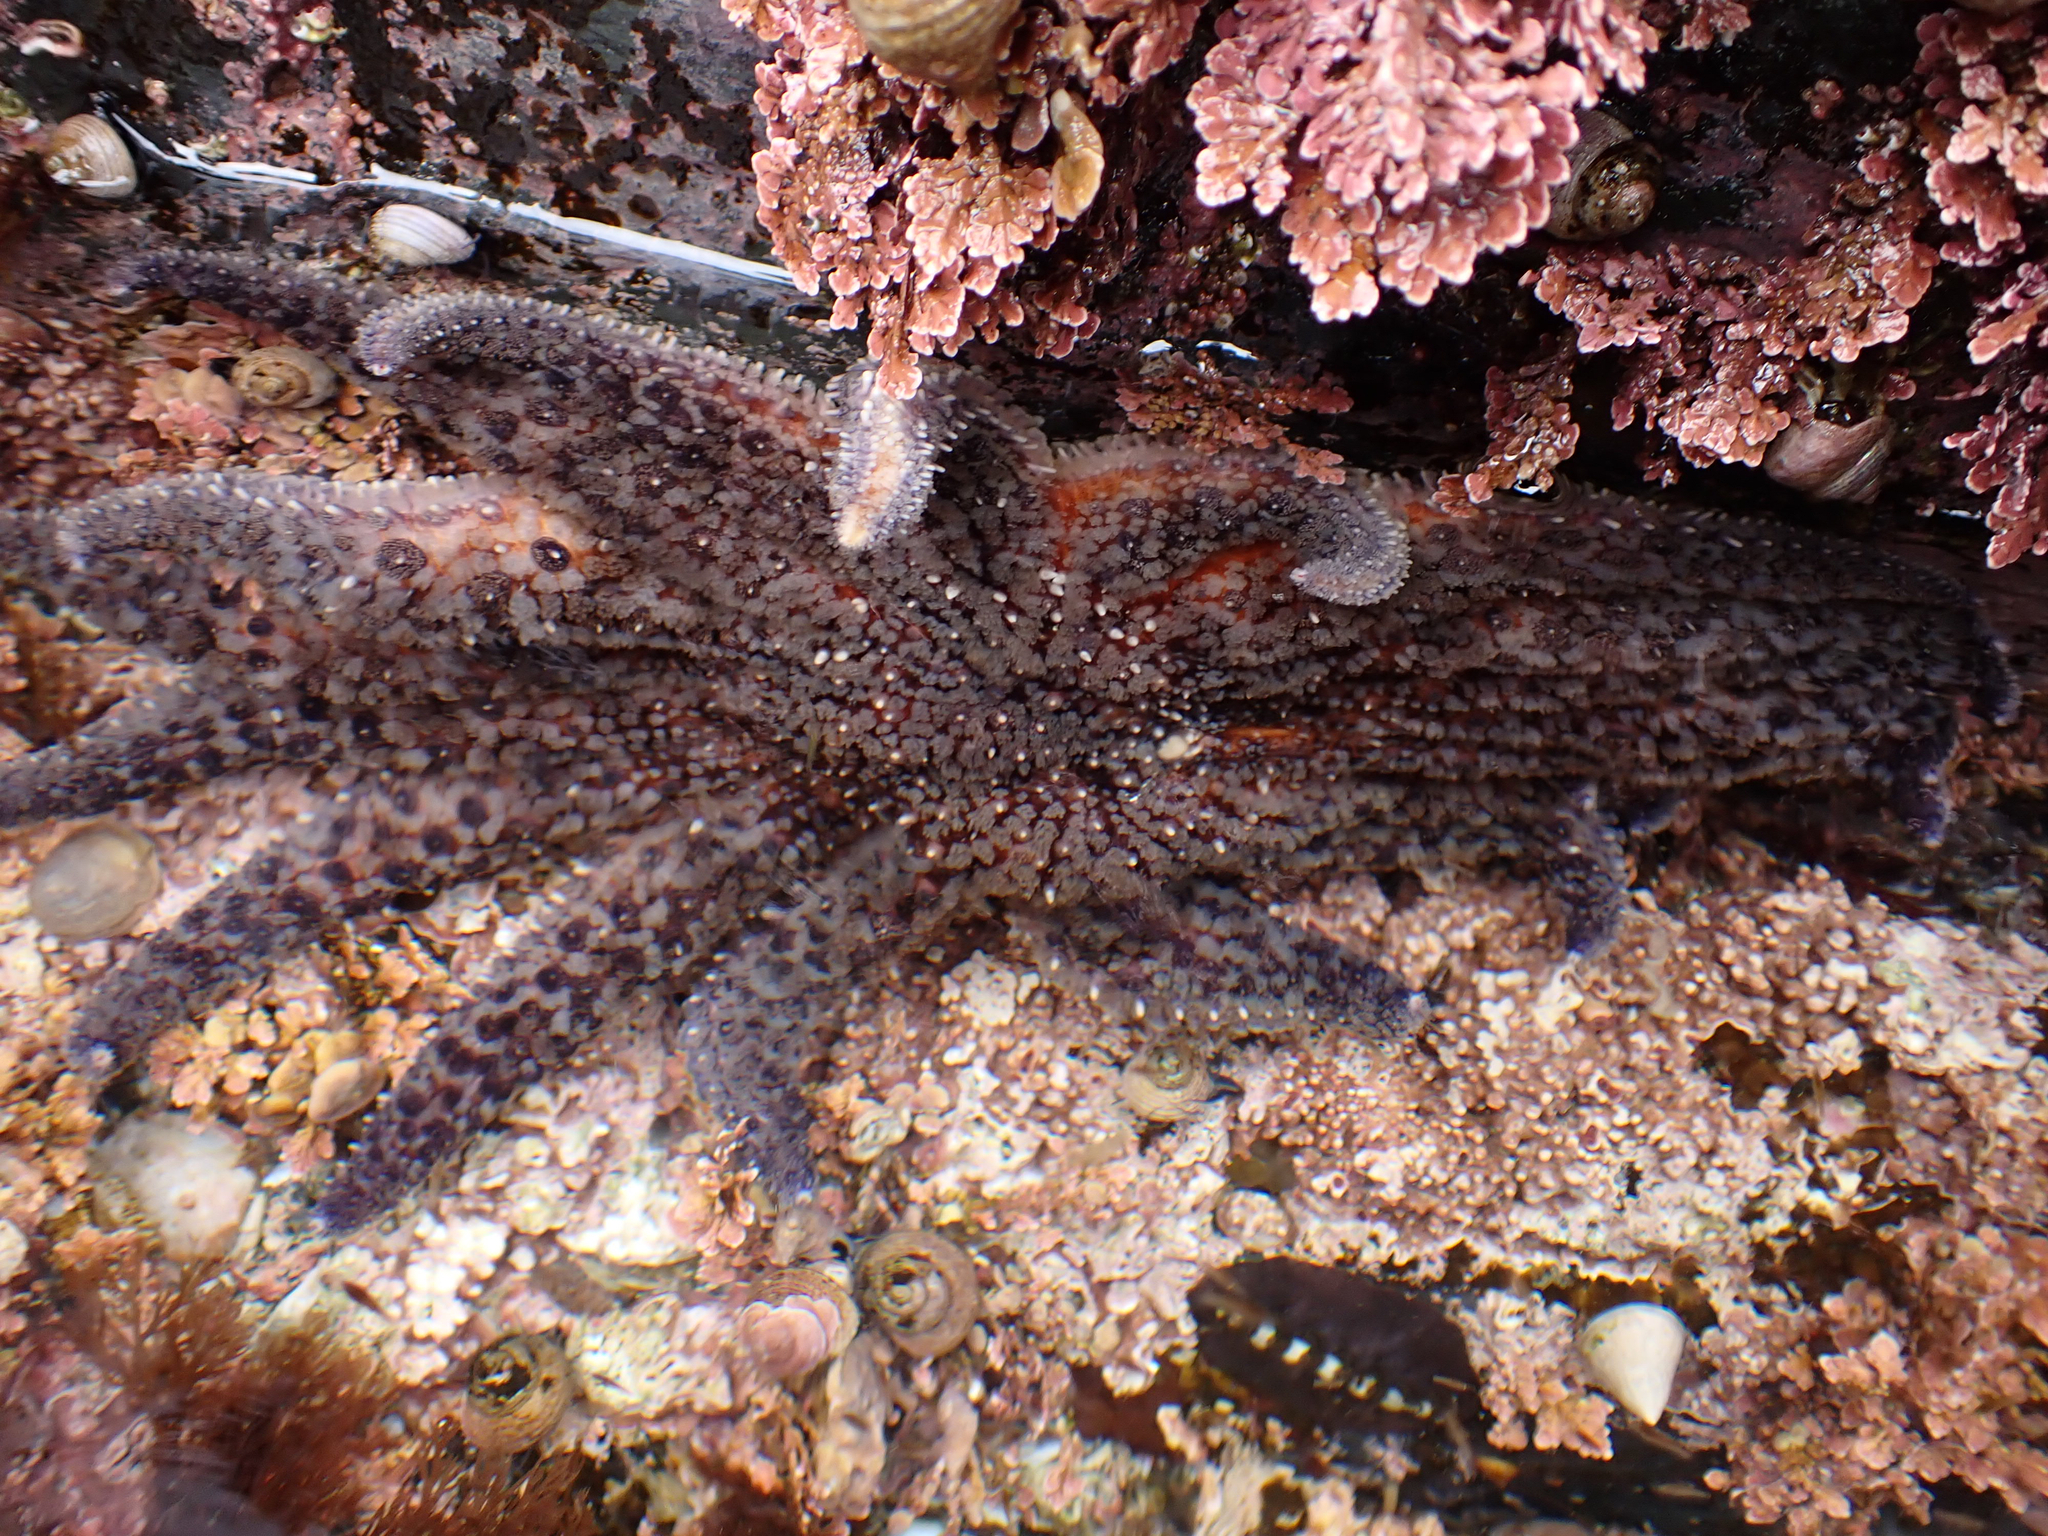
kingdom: Animalia
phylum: Echinodermata
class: Asteroidea
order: Forcipulatida
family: Asteriidae
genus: Pycnopodia
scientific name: Pycnopodia helianthoides
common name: Rag mop
